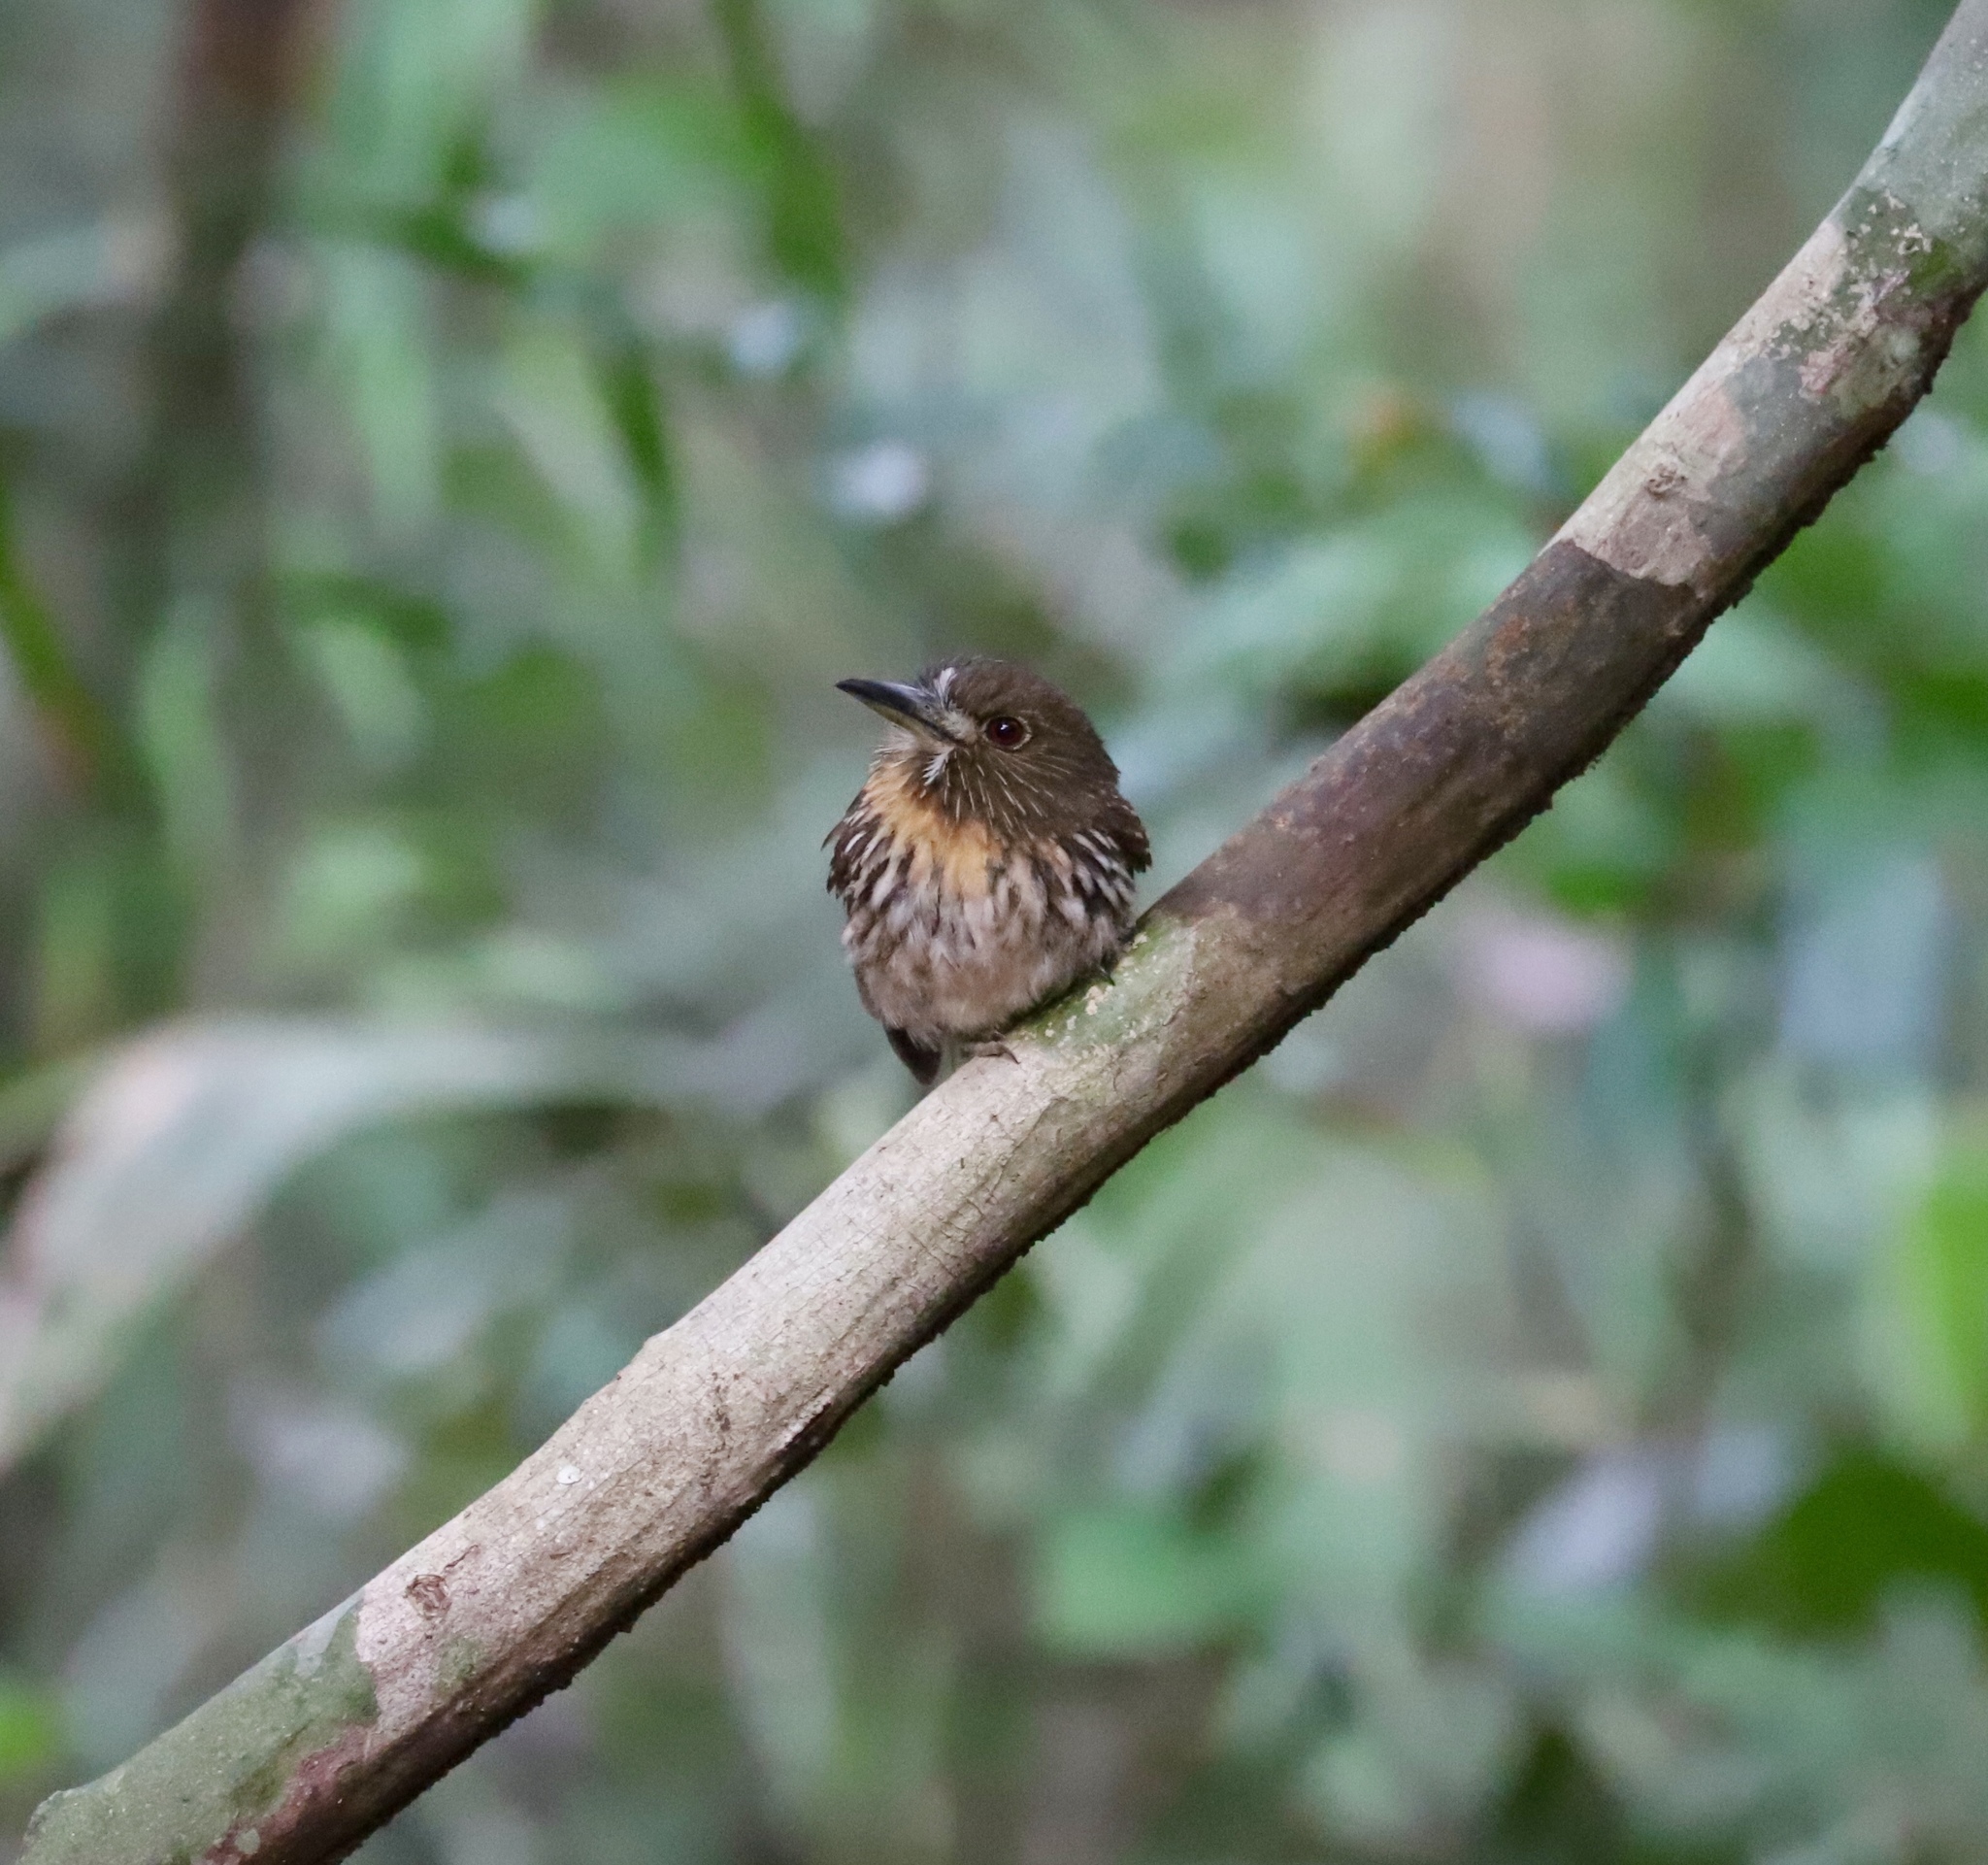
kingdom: Animalia
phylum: Chordata
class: Aves
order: Piciformes
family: Bucconidae
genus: Malacoptila
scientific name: Malacoptila panamensis
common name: White-whiskered puffbird
